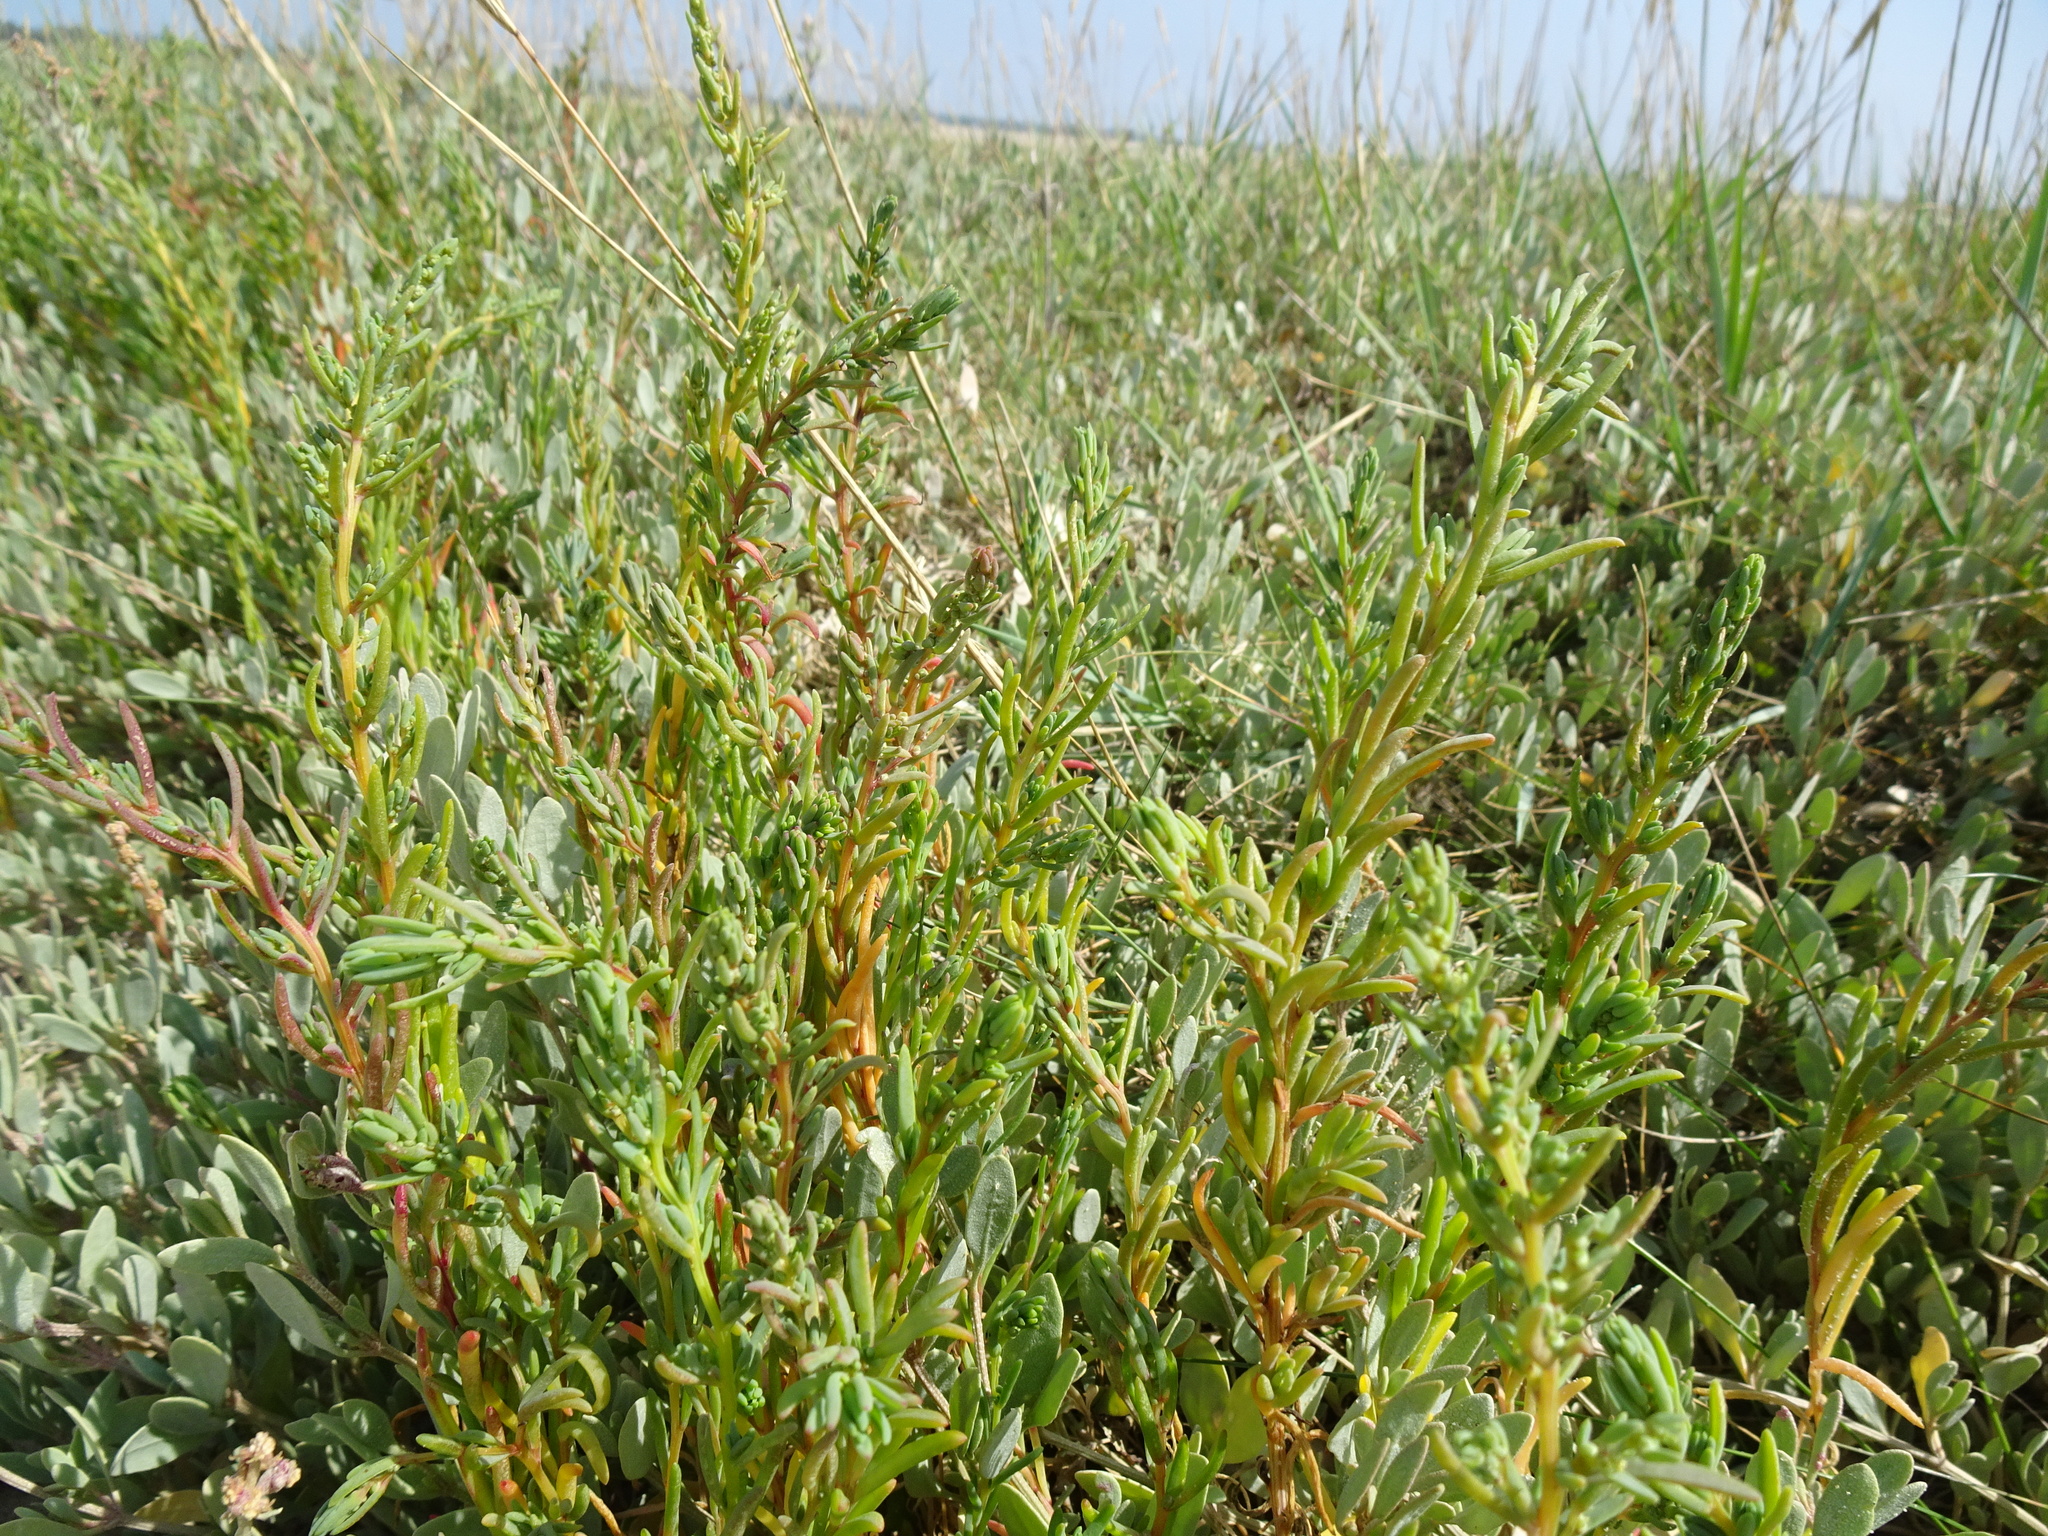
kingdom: Plantae
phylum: Tracheophyta
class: Magnoliopsida
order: Caryophyllales
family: Amaranthaceae
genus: Suaeda
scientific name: Suaeda maritima
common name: Annual sea-blite
